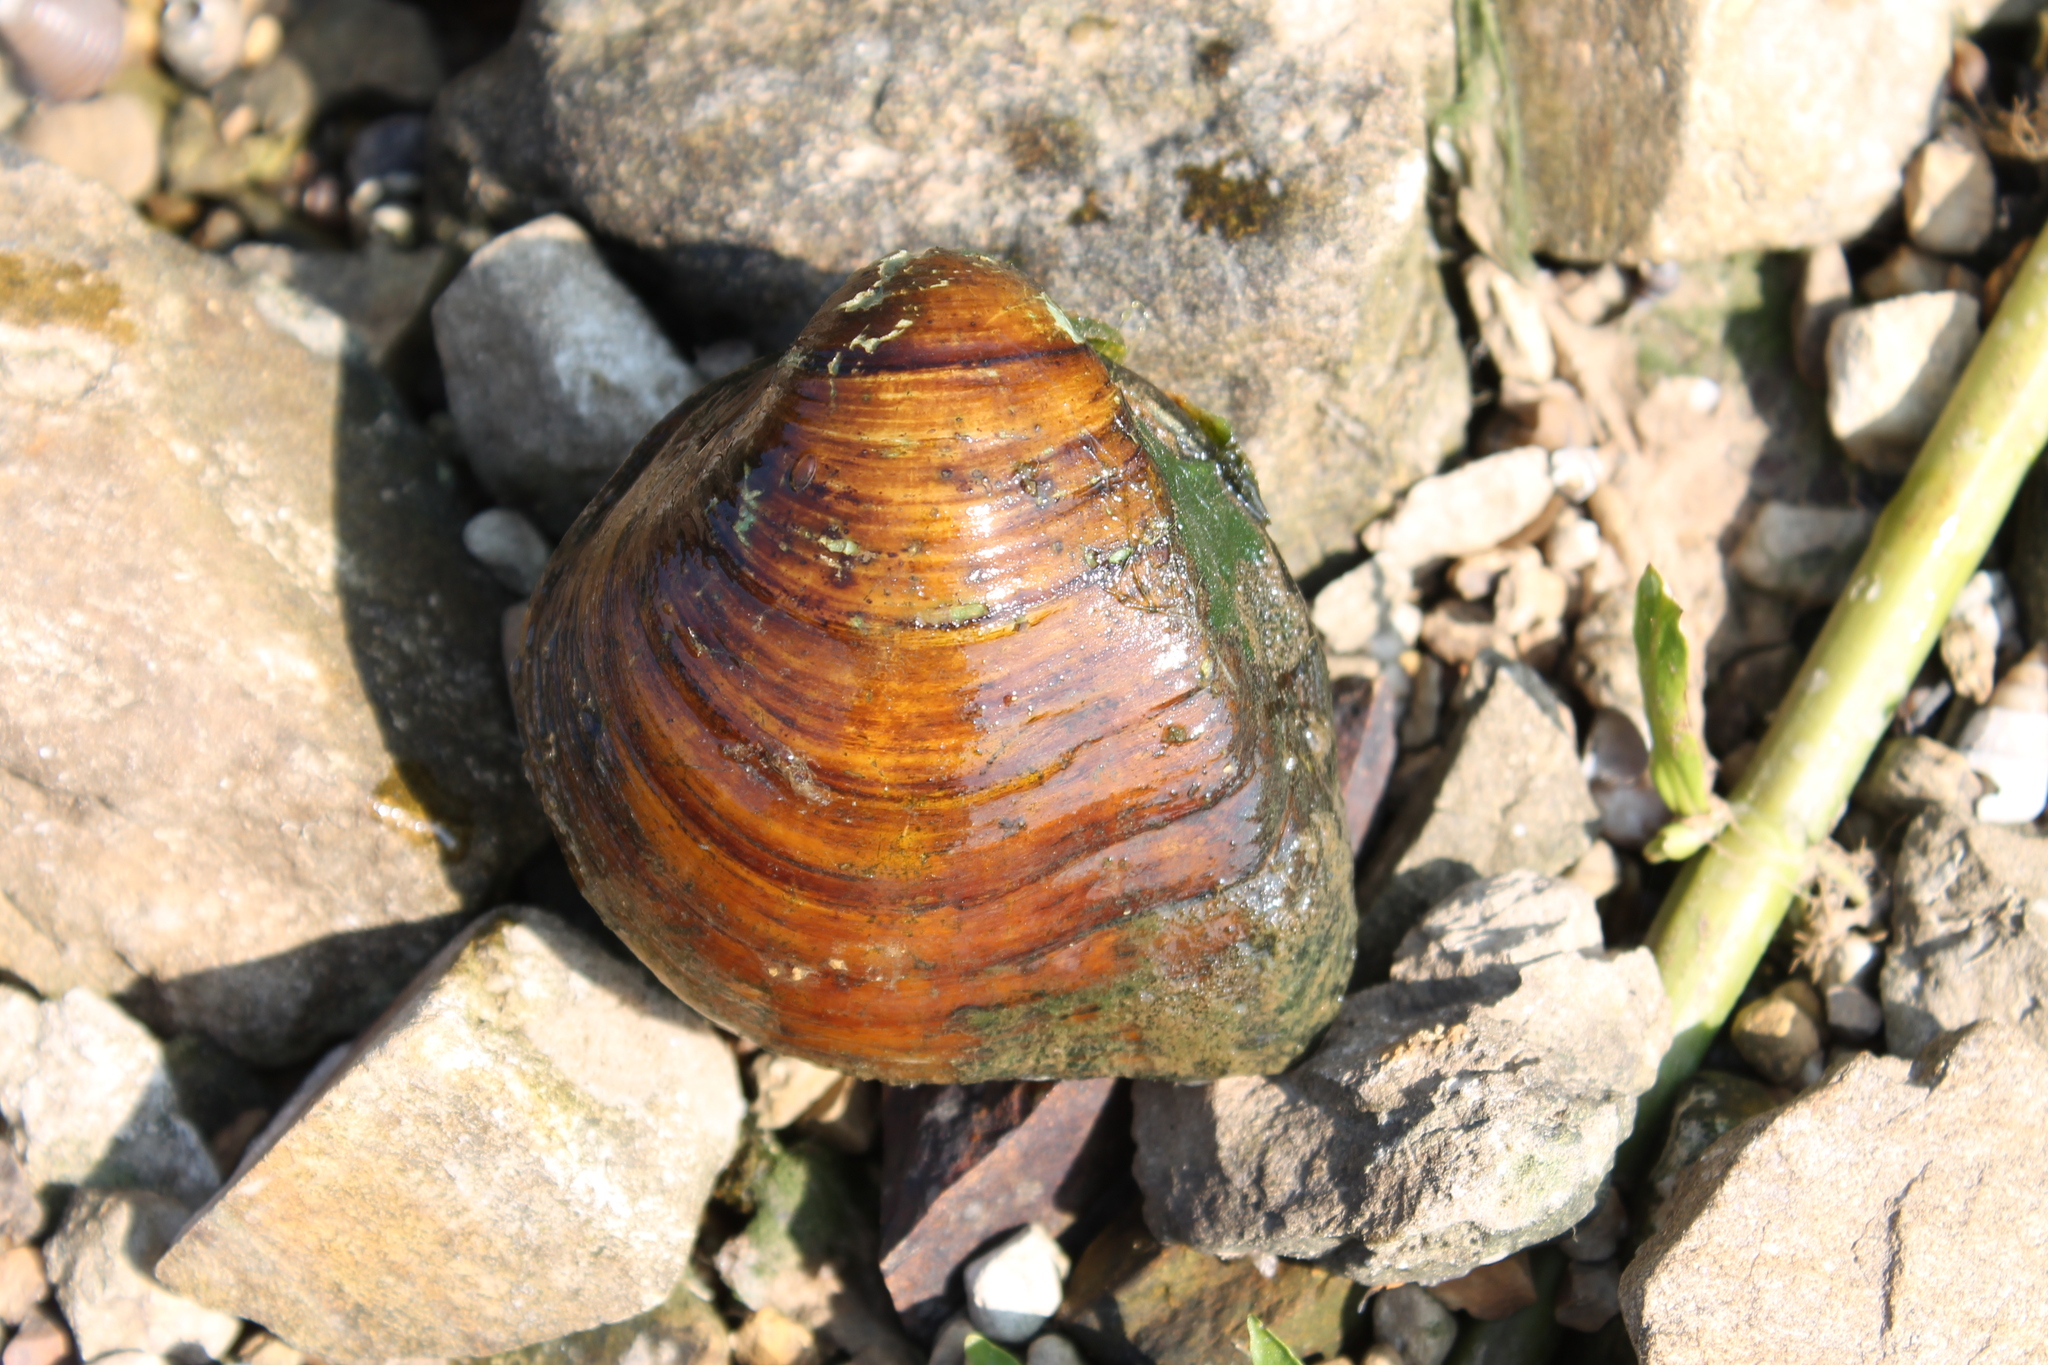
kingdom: Animalia
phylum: Mollusca
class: Bivalvia
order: Unionida
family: Unionidae
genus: Fusconaia
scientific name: Fusconaia flava
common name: Wabash pigtoe
